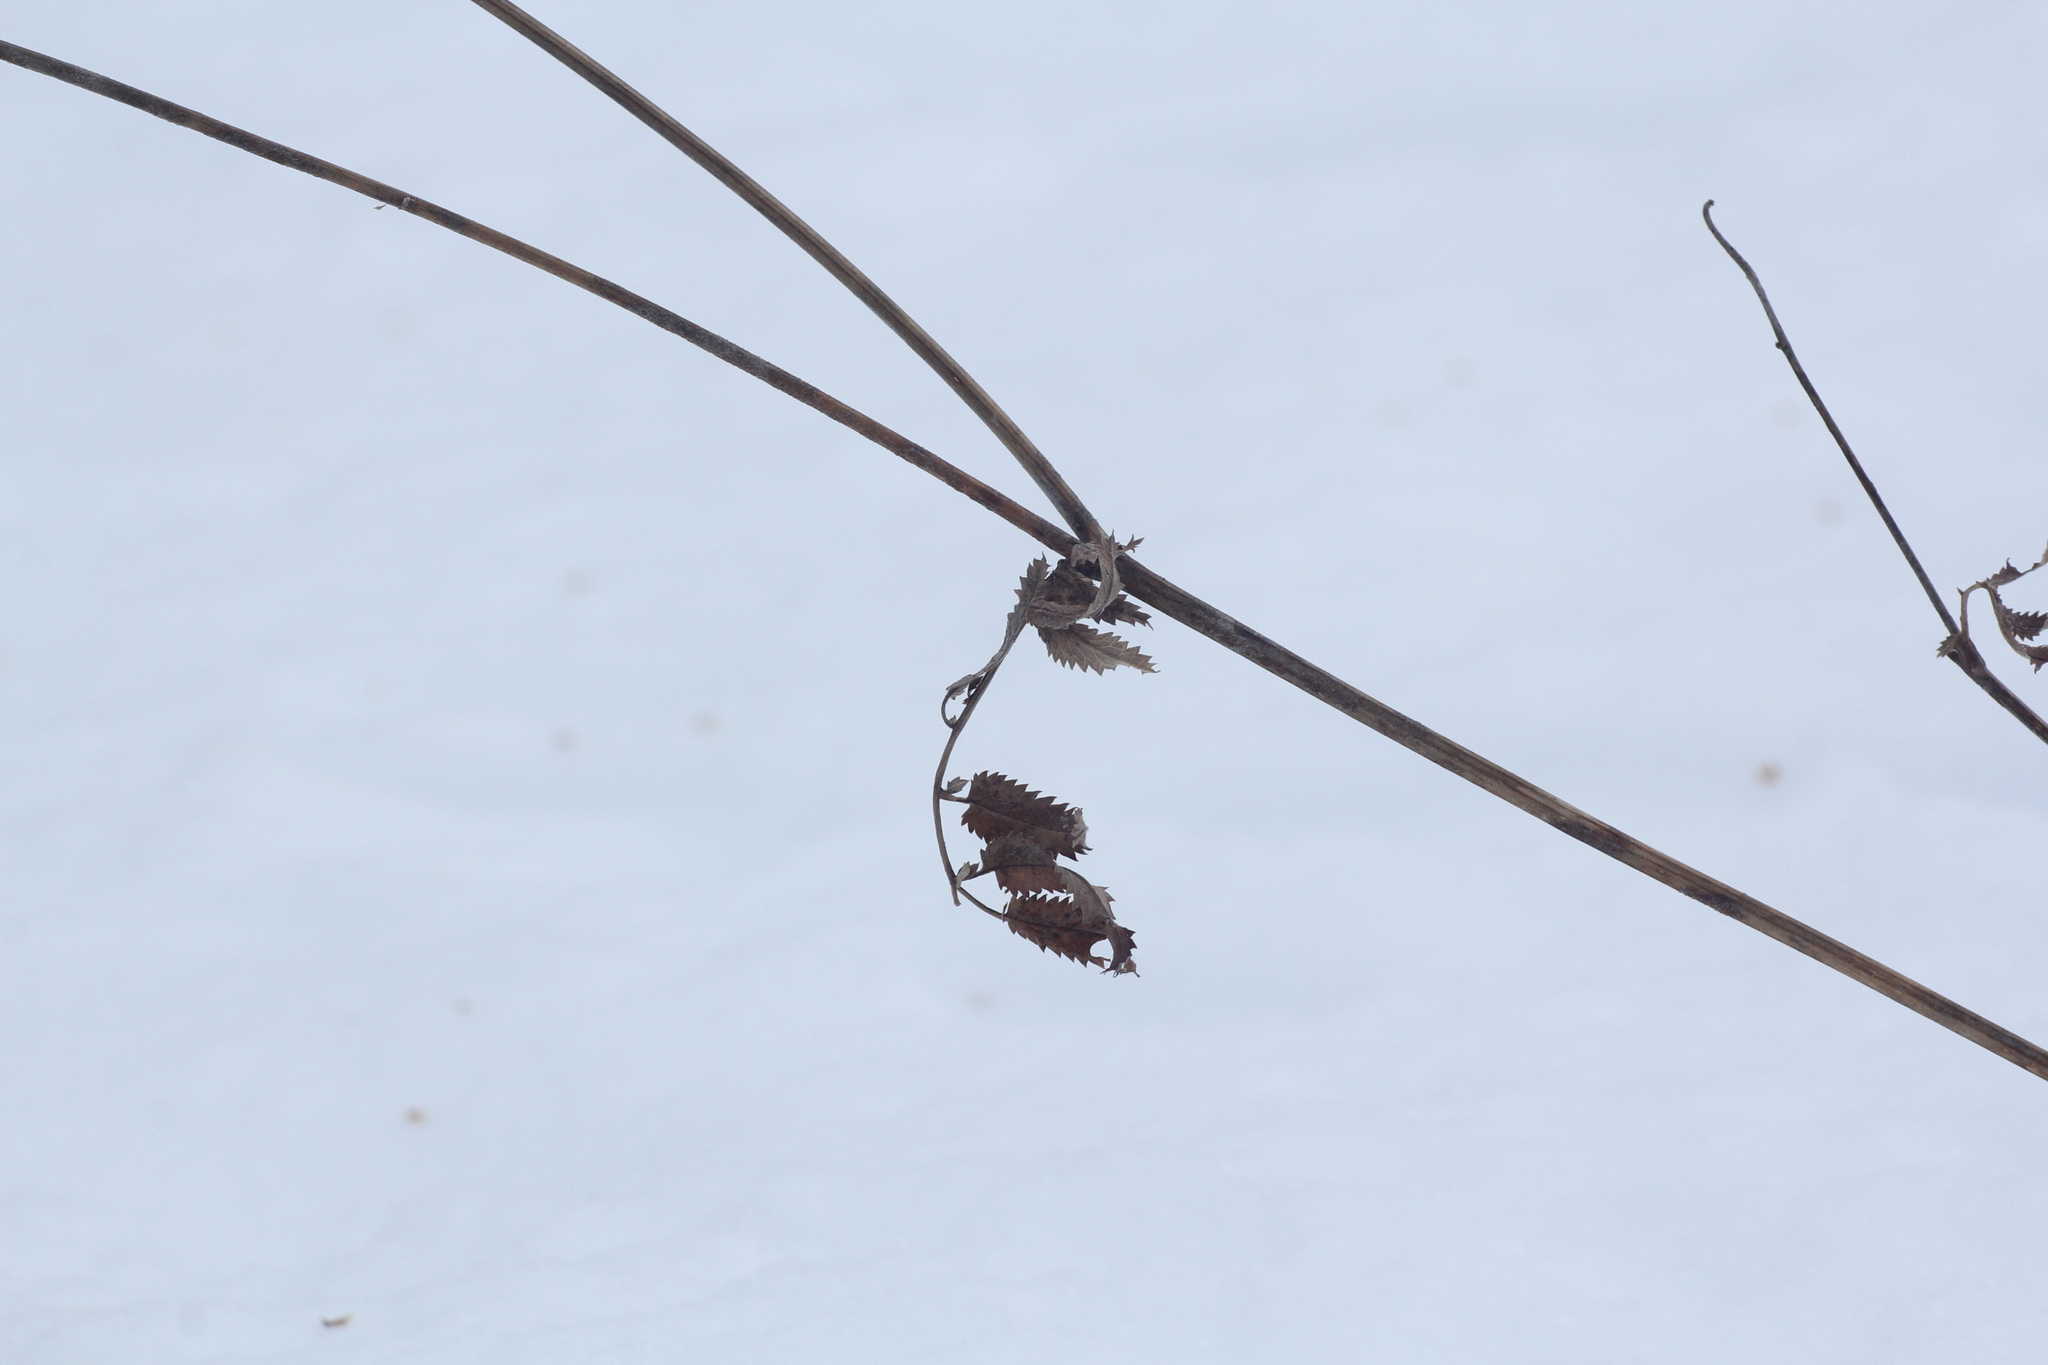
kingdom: Plantae
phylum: Tracheophyta
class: Magnoliopsida
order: Rosales
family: Rosaceae
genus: Sanguisorba
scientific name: Sanguisorba officinalis
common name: Great burnet
